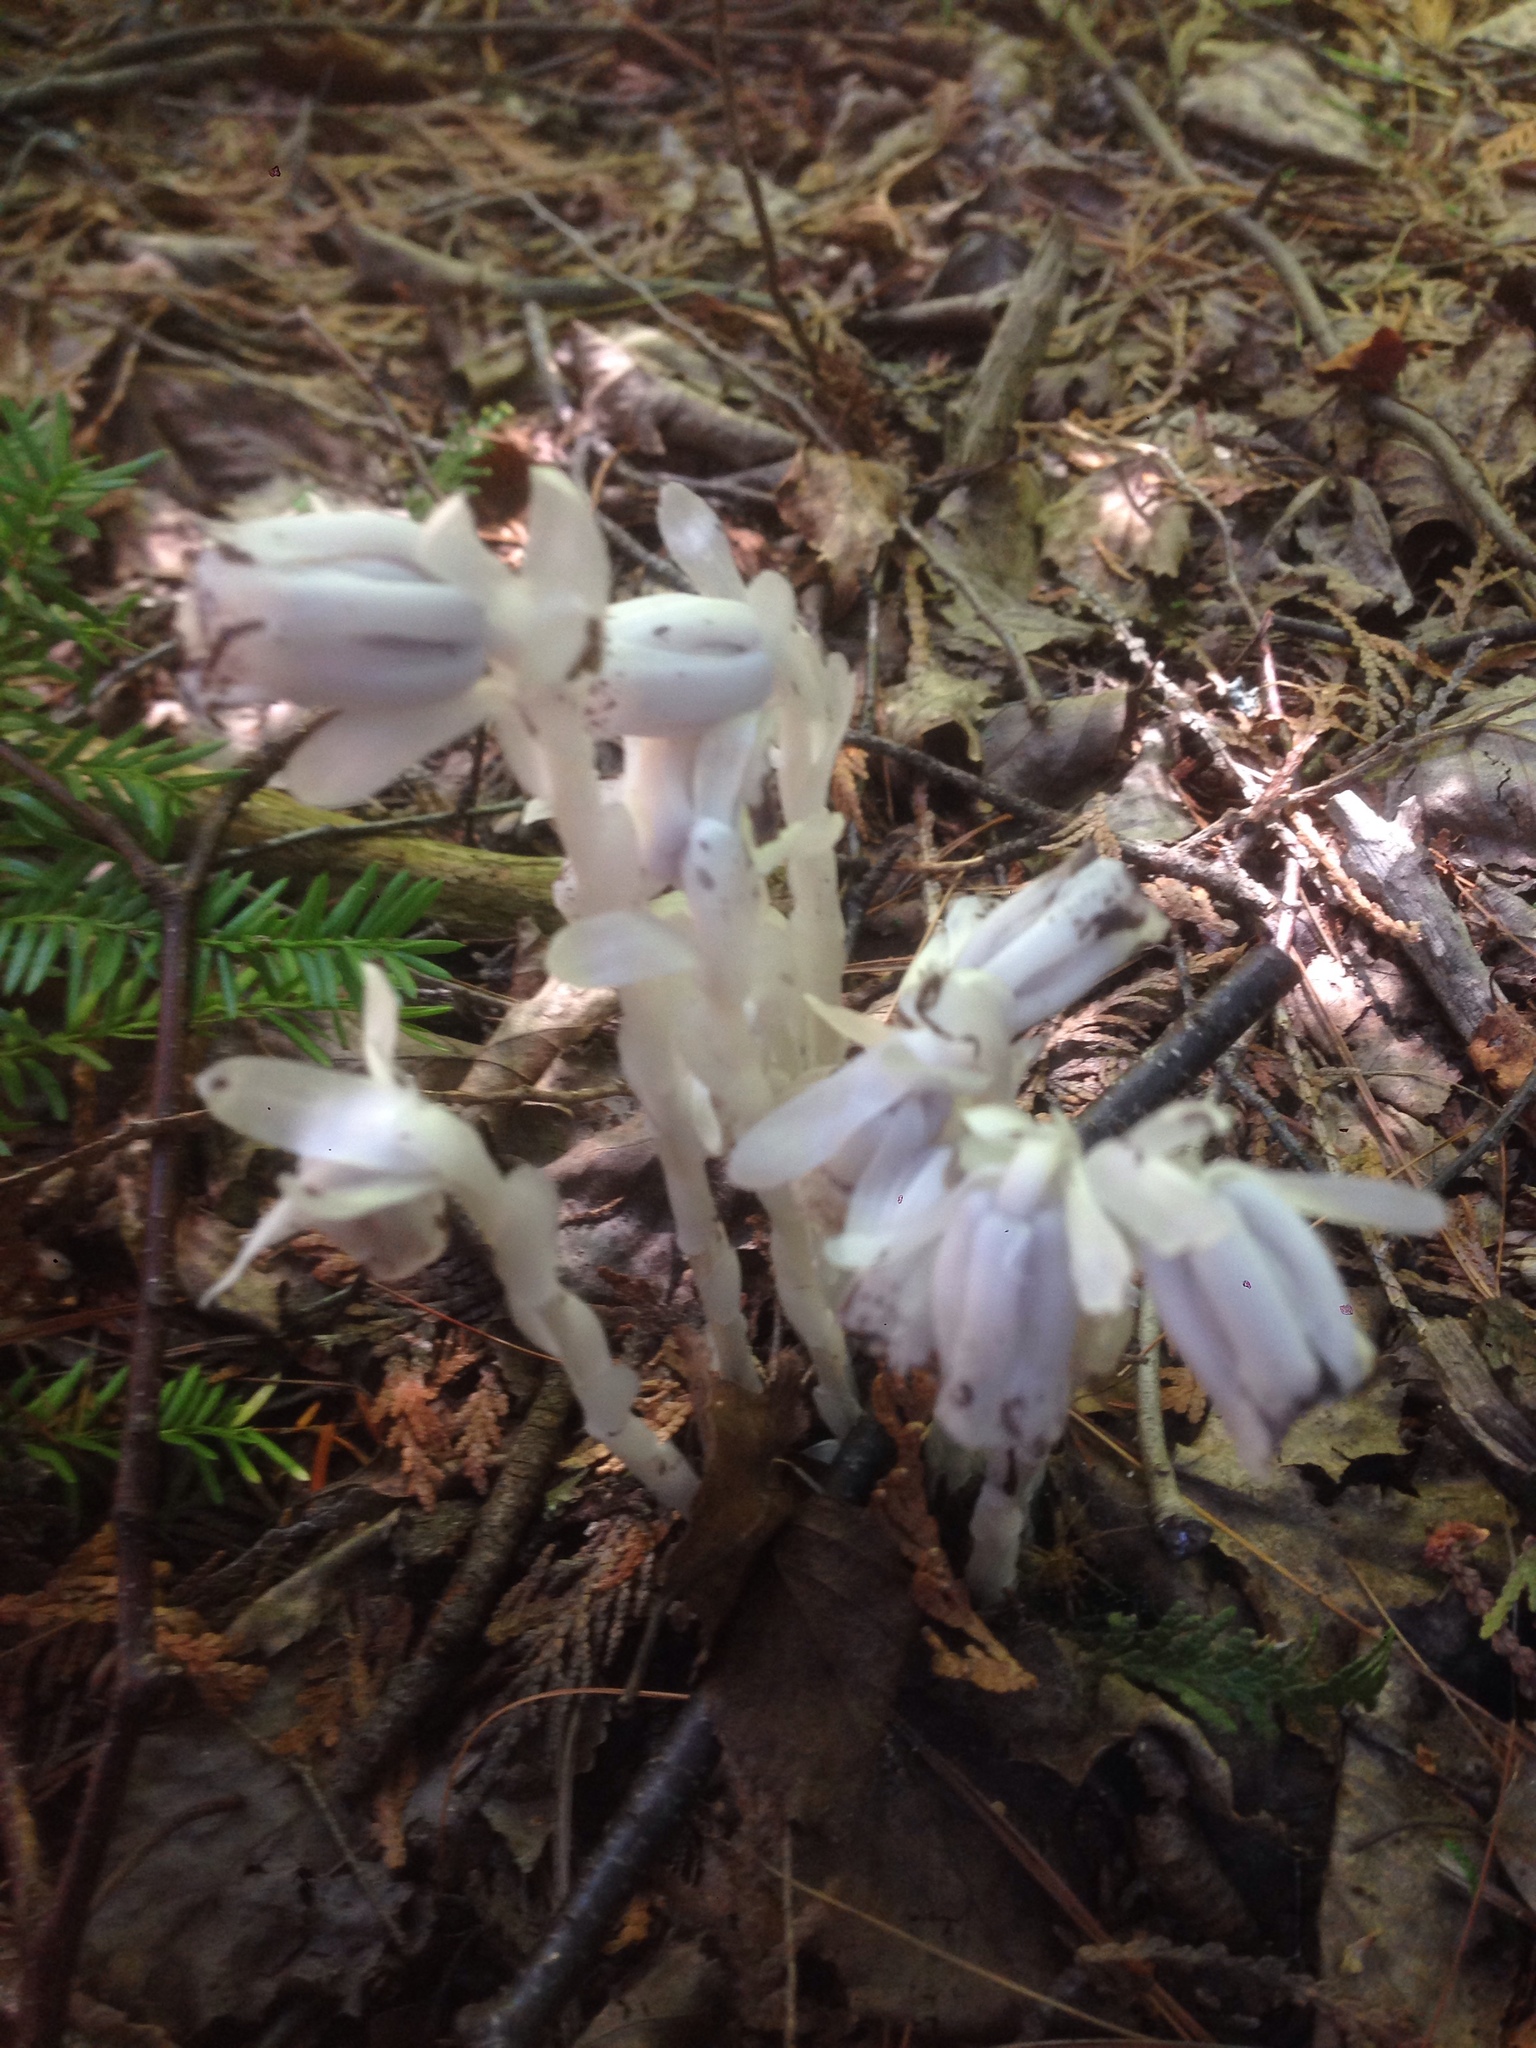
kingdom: Plantae
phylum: Tracheophyta
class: Magnoliopsida
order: Ericales
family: Ericaceae
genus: Monotropa
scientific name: Monotropa uniflora
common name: Convulsion root
